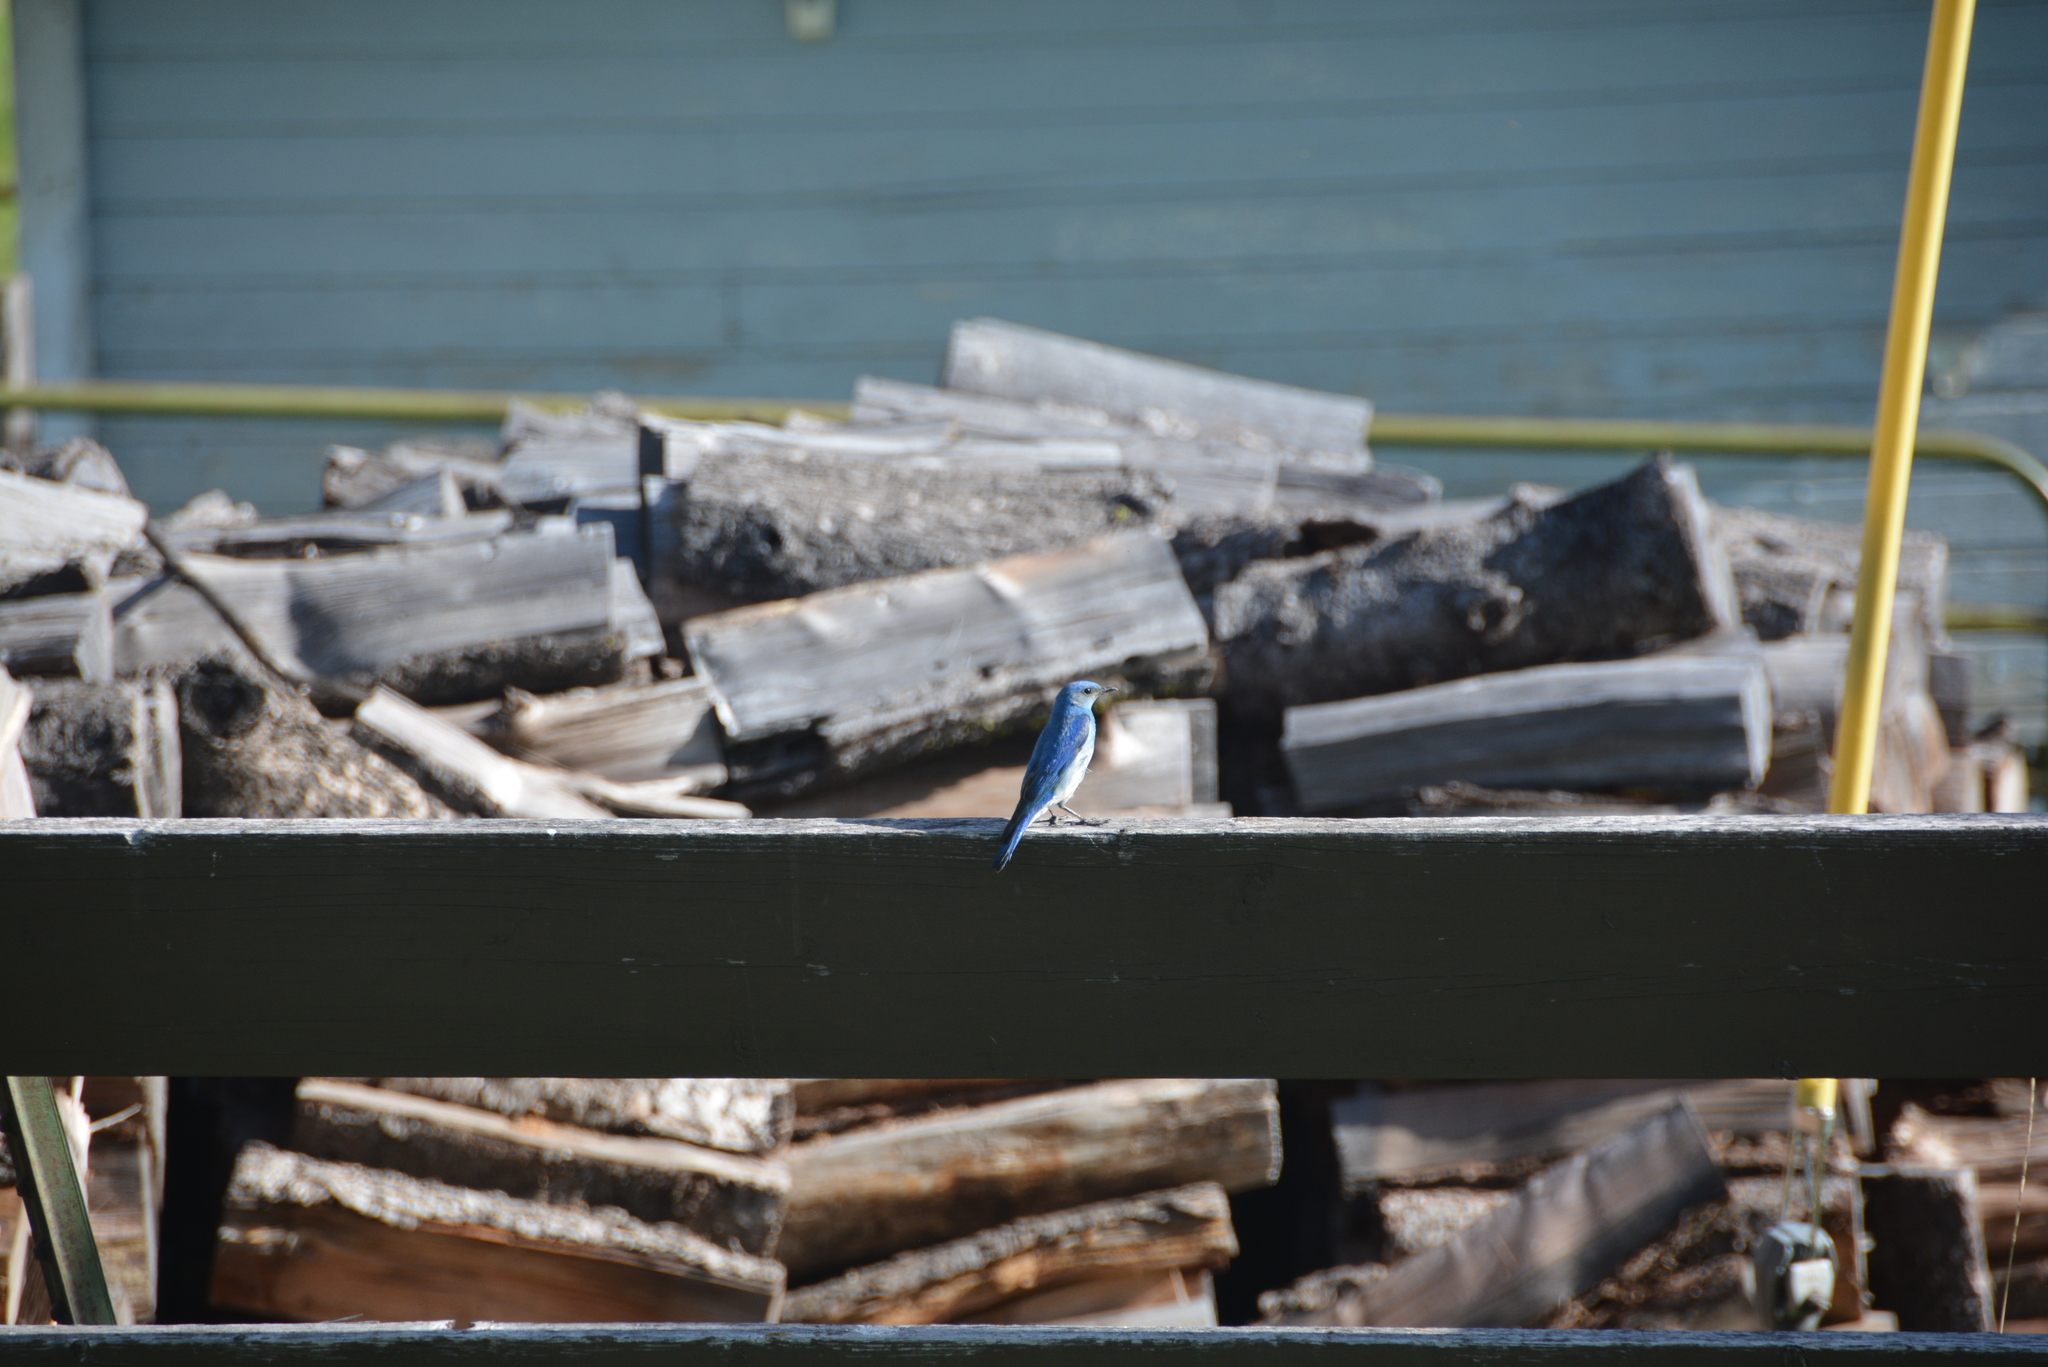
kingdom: Animalia
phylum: Chordata
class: Aves
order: Passeriformes
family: Turdidae
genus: Sialia
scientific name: Sialia currucoides
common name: Mountain bluebird
